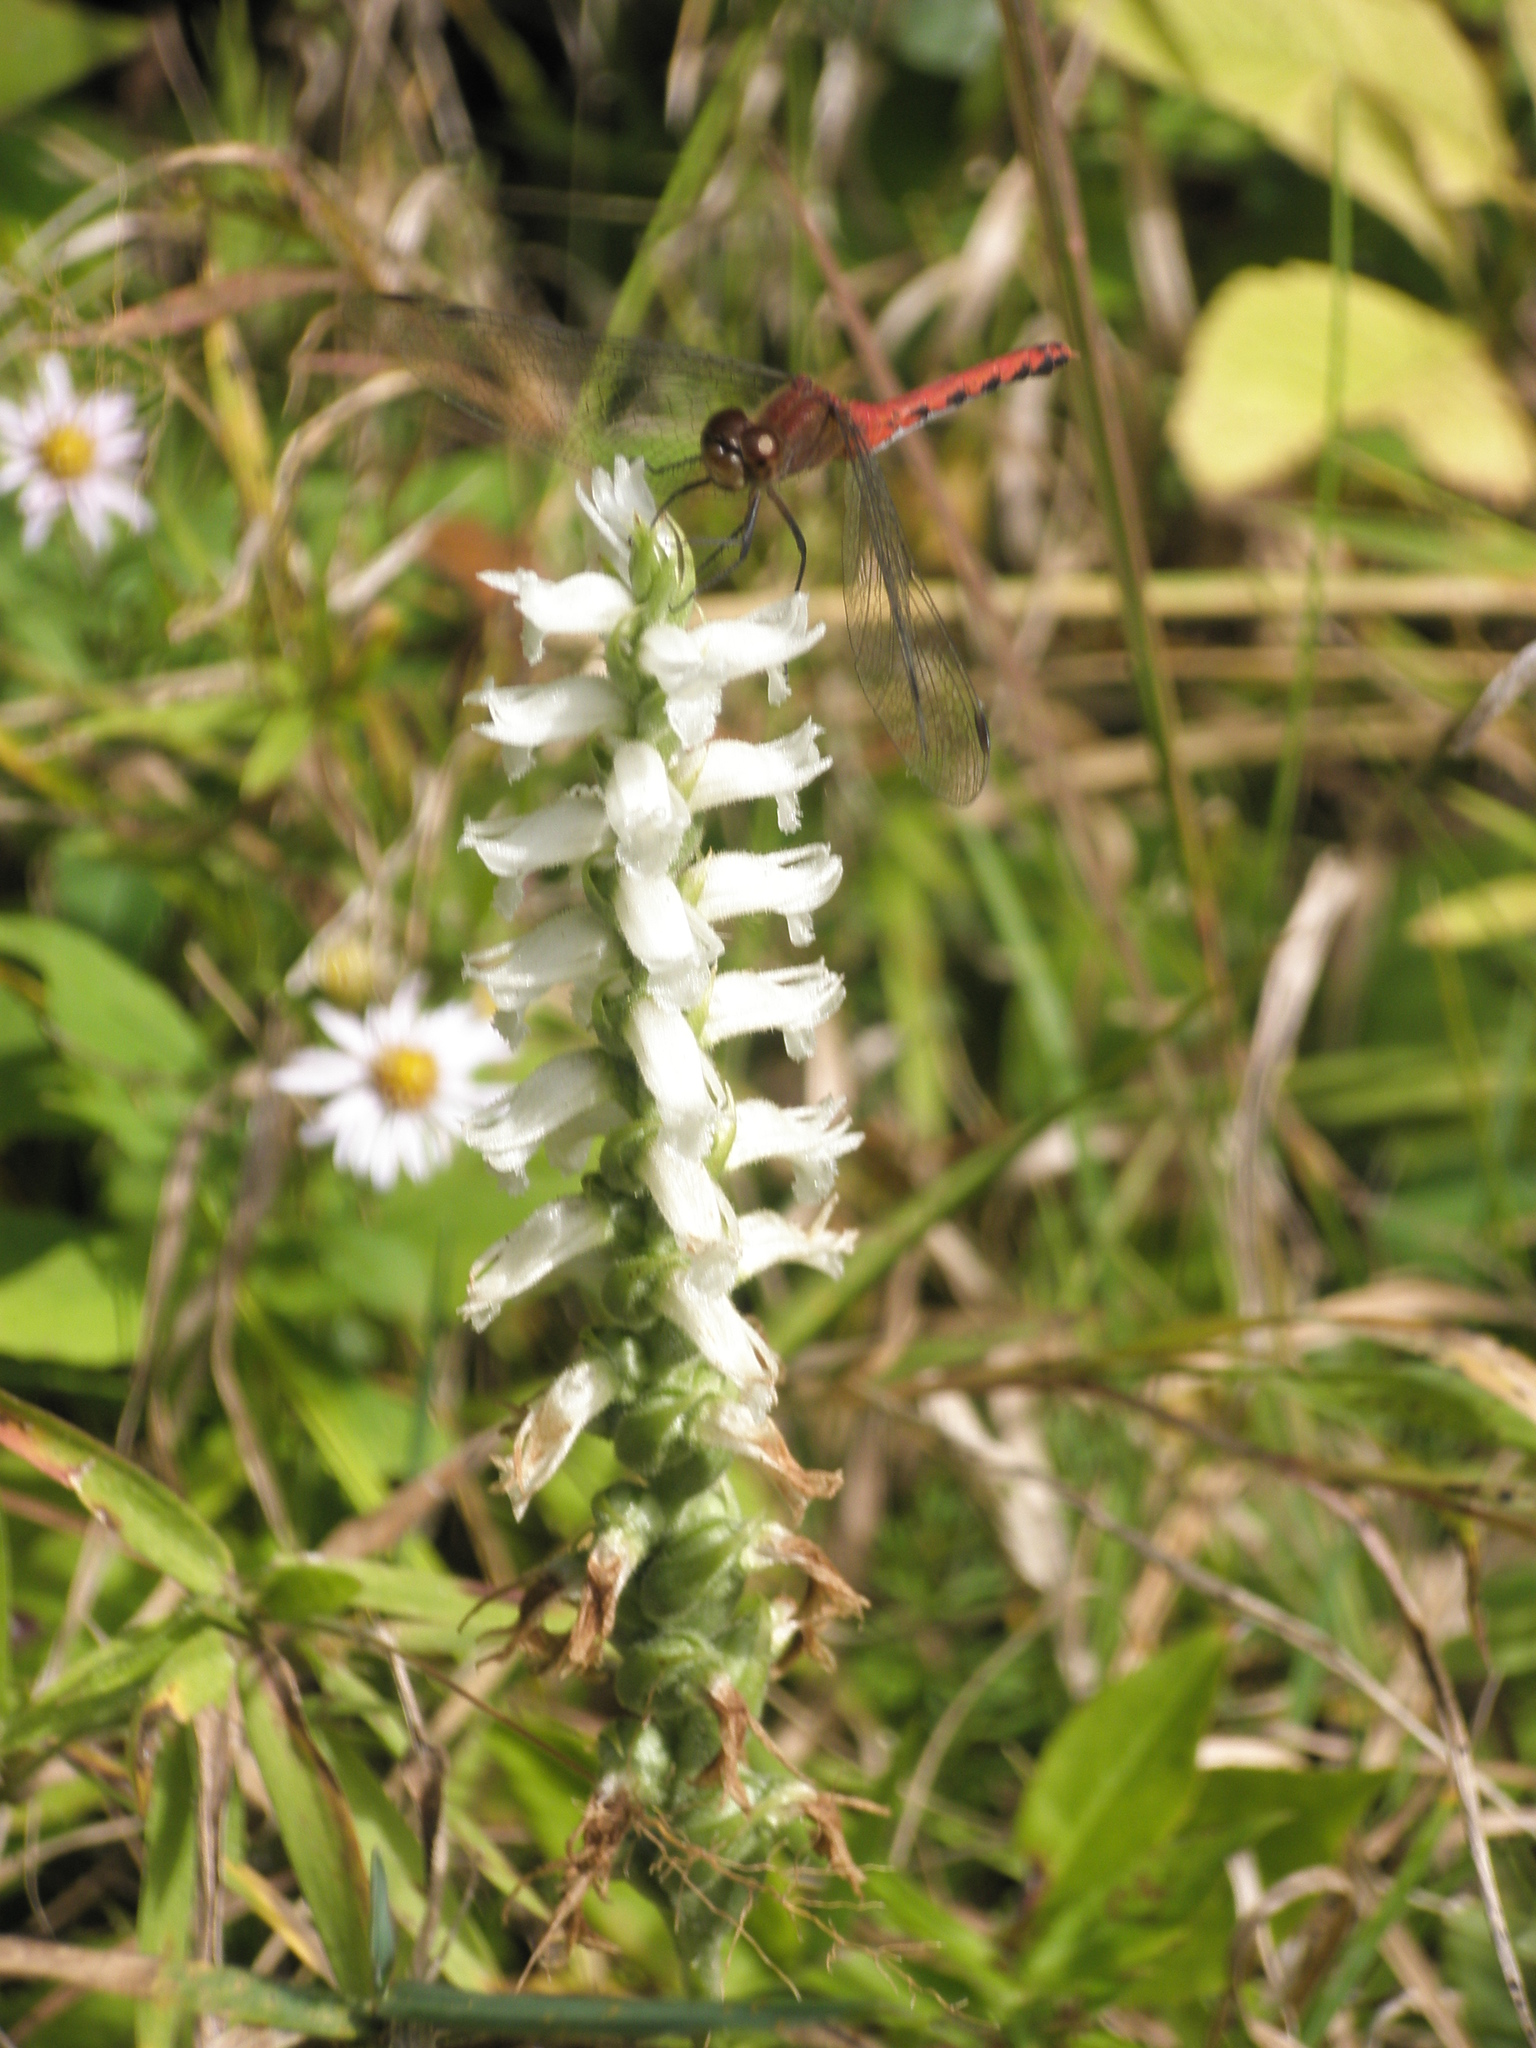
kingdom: Animalia
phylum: Arthropoda
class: Insecta
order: Odonata
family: Libellulidae
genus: Sympetrum
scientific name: Sympetrum
